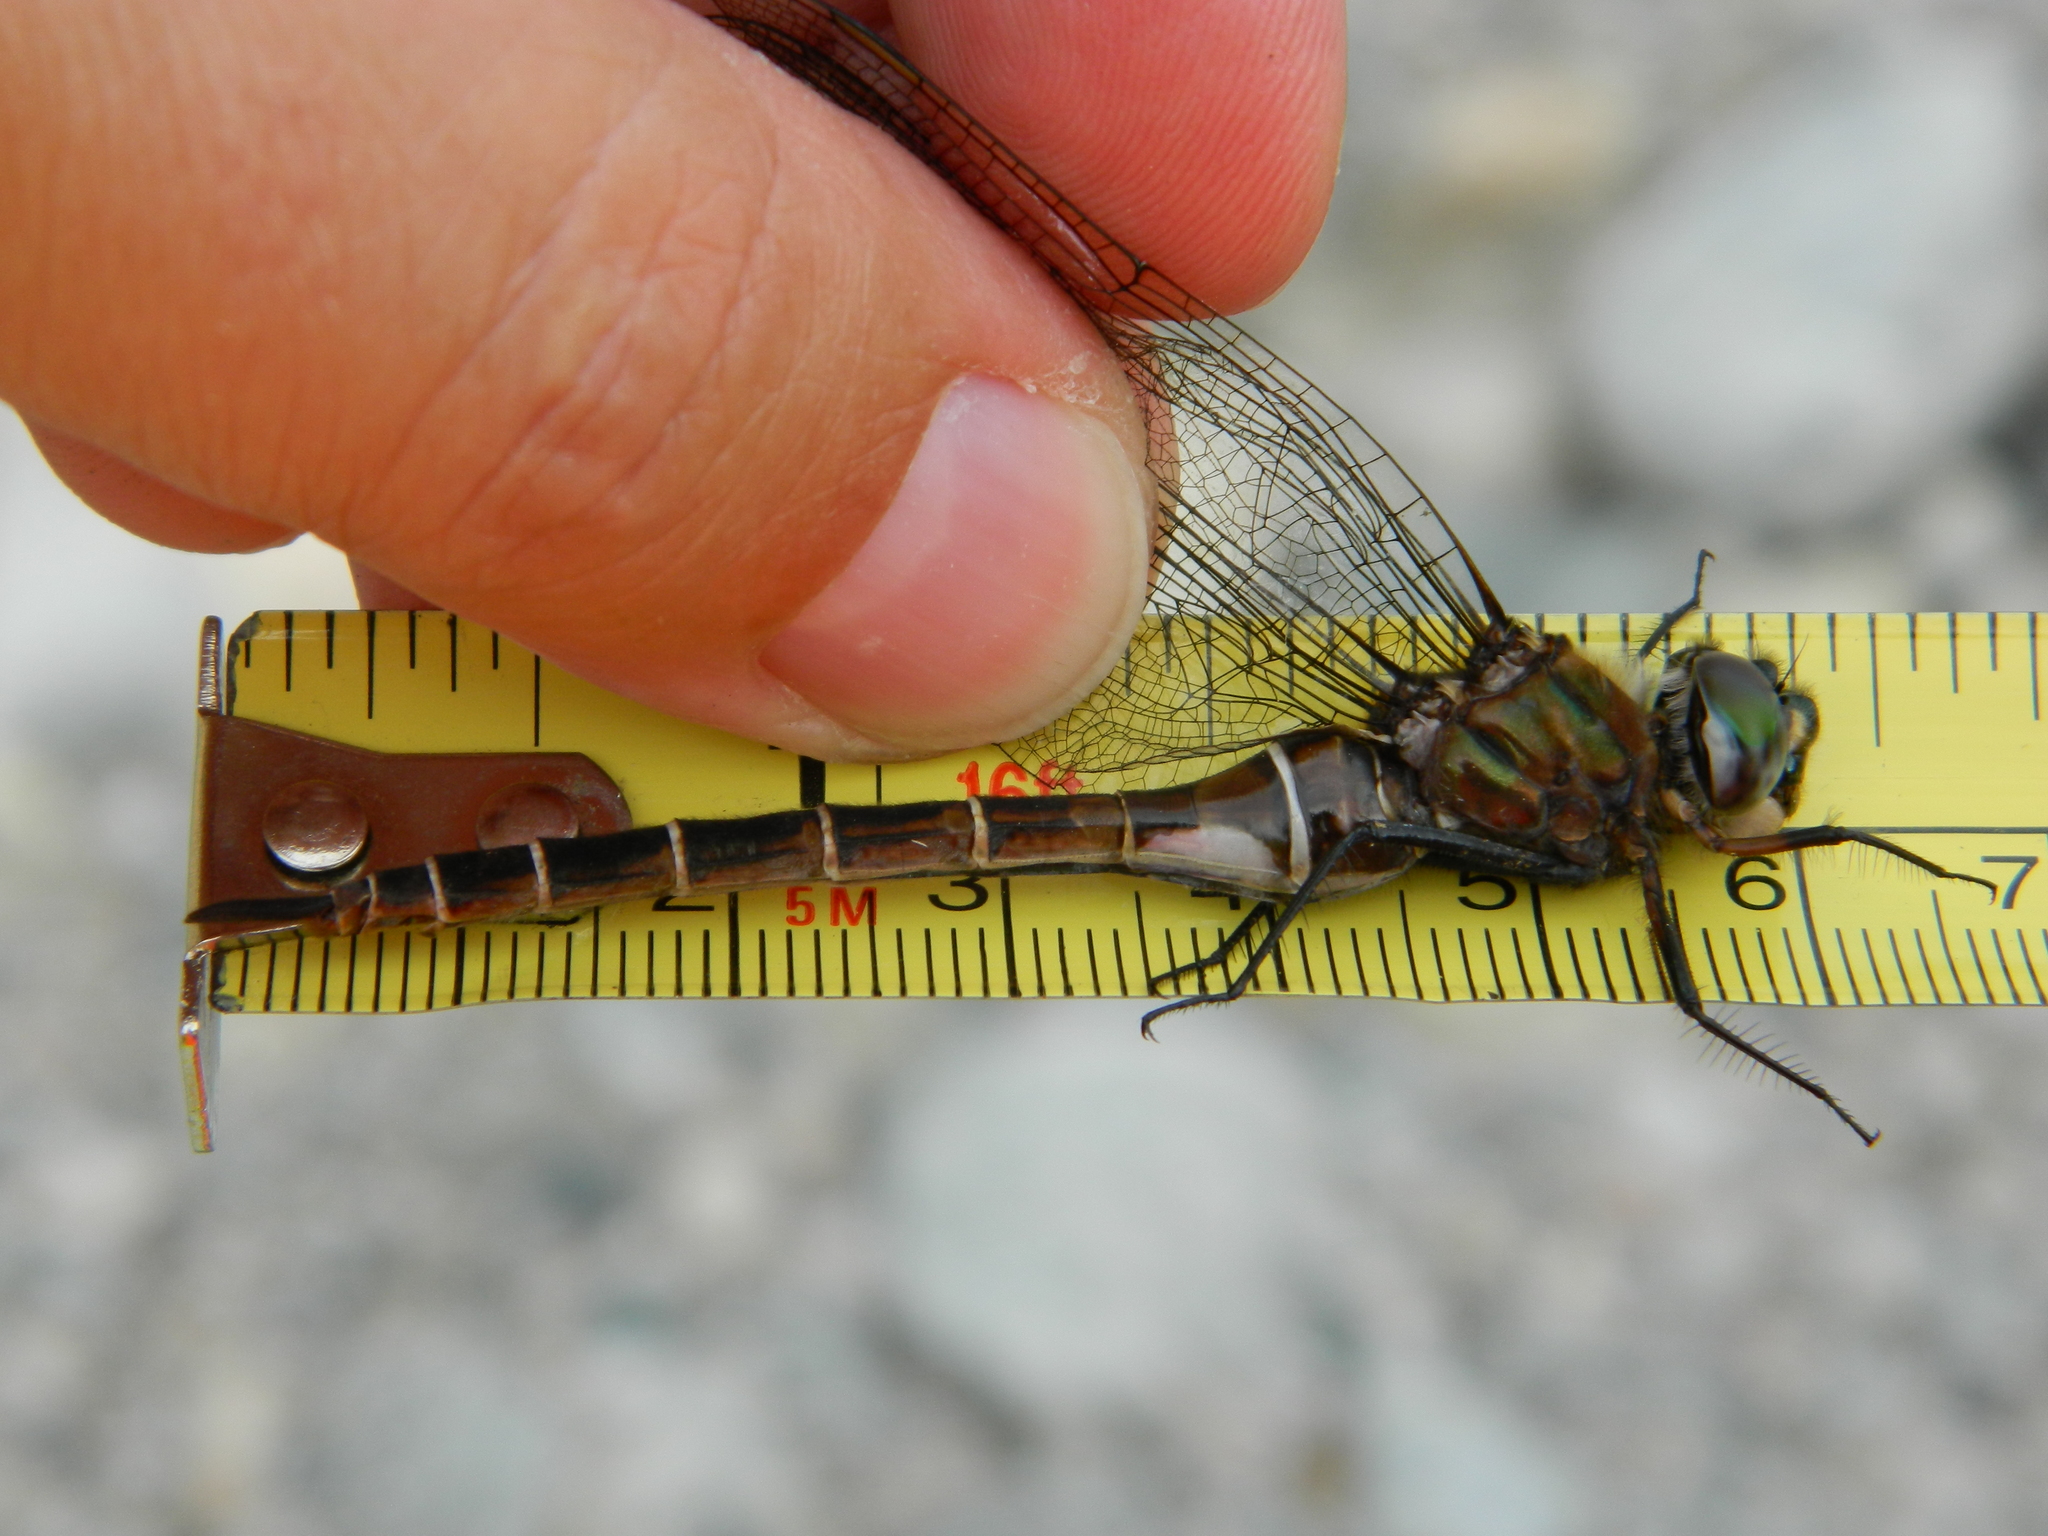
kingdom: Animalia
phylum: Arthropoda
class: Insecta
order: Odonata
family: Corduliidae
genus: Somatochlora
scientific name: Somatochlora cingulata
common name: Lake emerald
